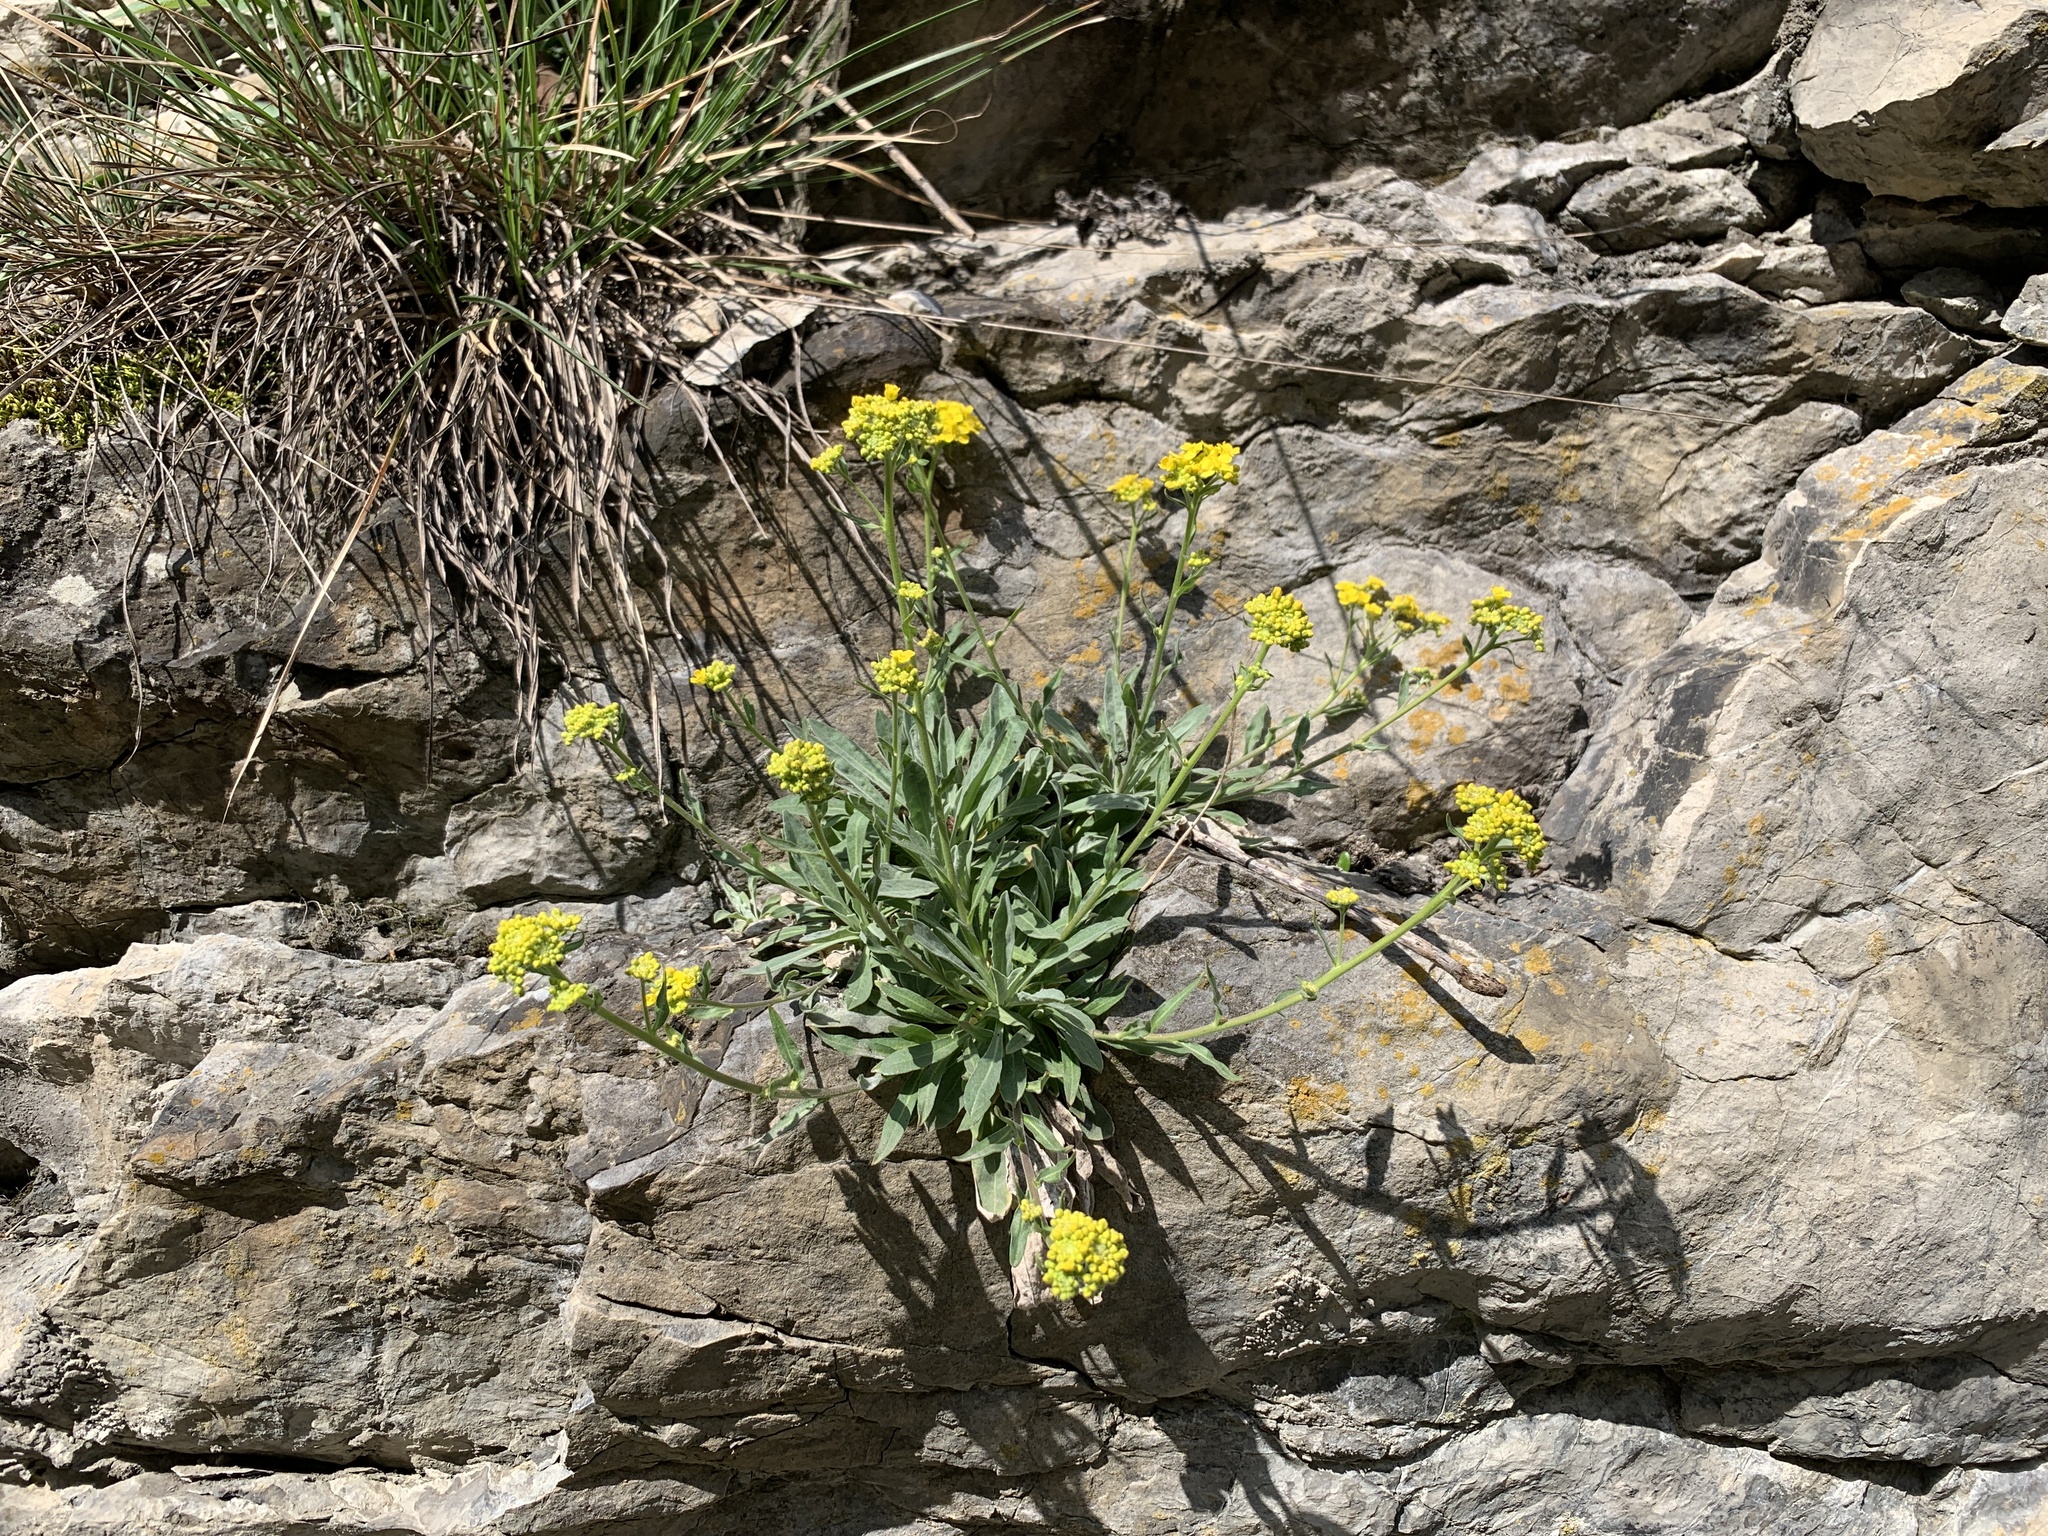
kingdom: Plantae
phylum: Tracheophyta
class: Magnoliopsida
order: Brassicales
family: Brassicaceae
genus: Aurinia
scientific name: Aurinia saxatilis
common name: Golden-tuft alyssum
